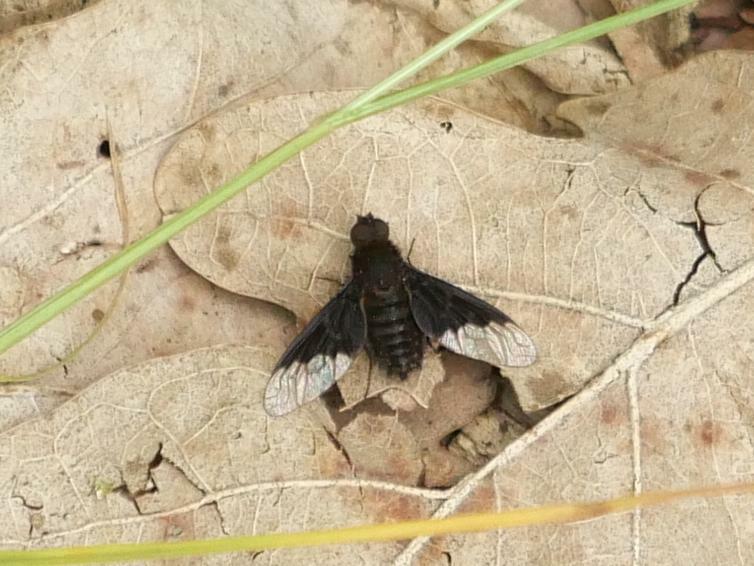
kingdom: Animalia
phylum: Arthropoda
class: Insecta
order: Diptera
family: Bombyliidae
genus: Hemipenthes
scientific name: Hemipenthes morio
